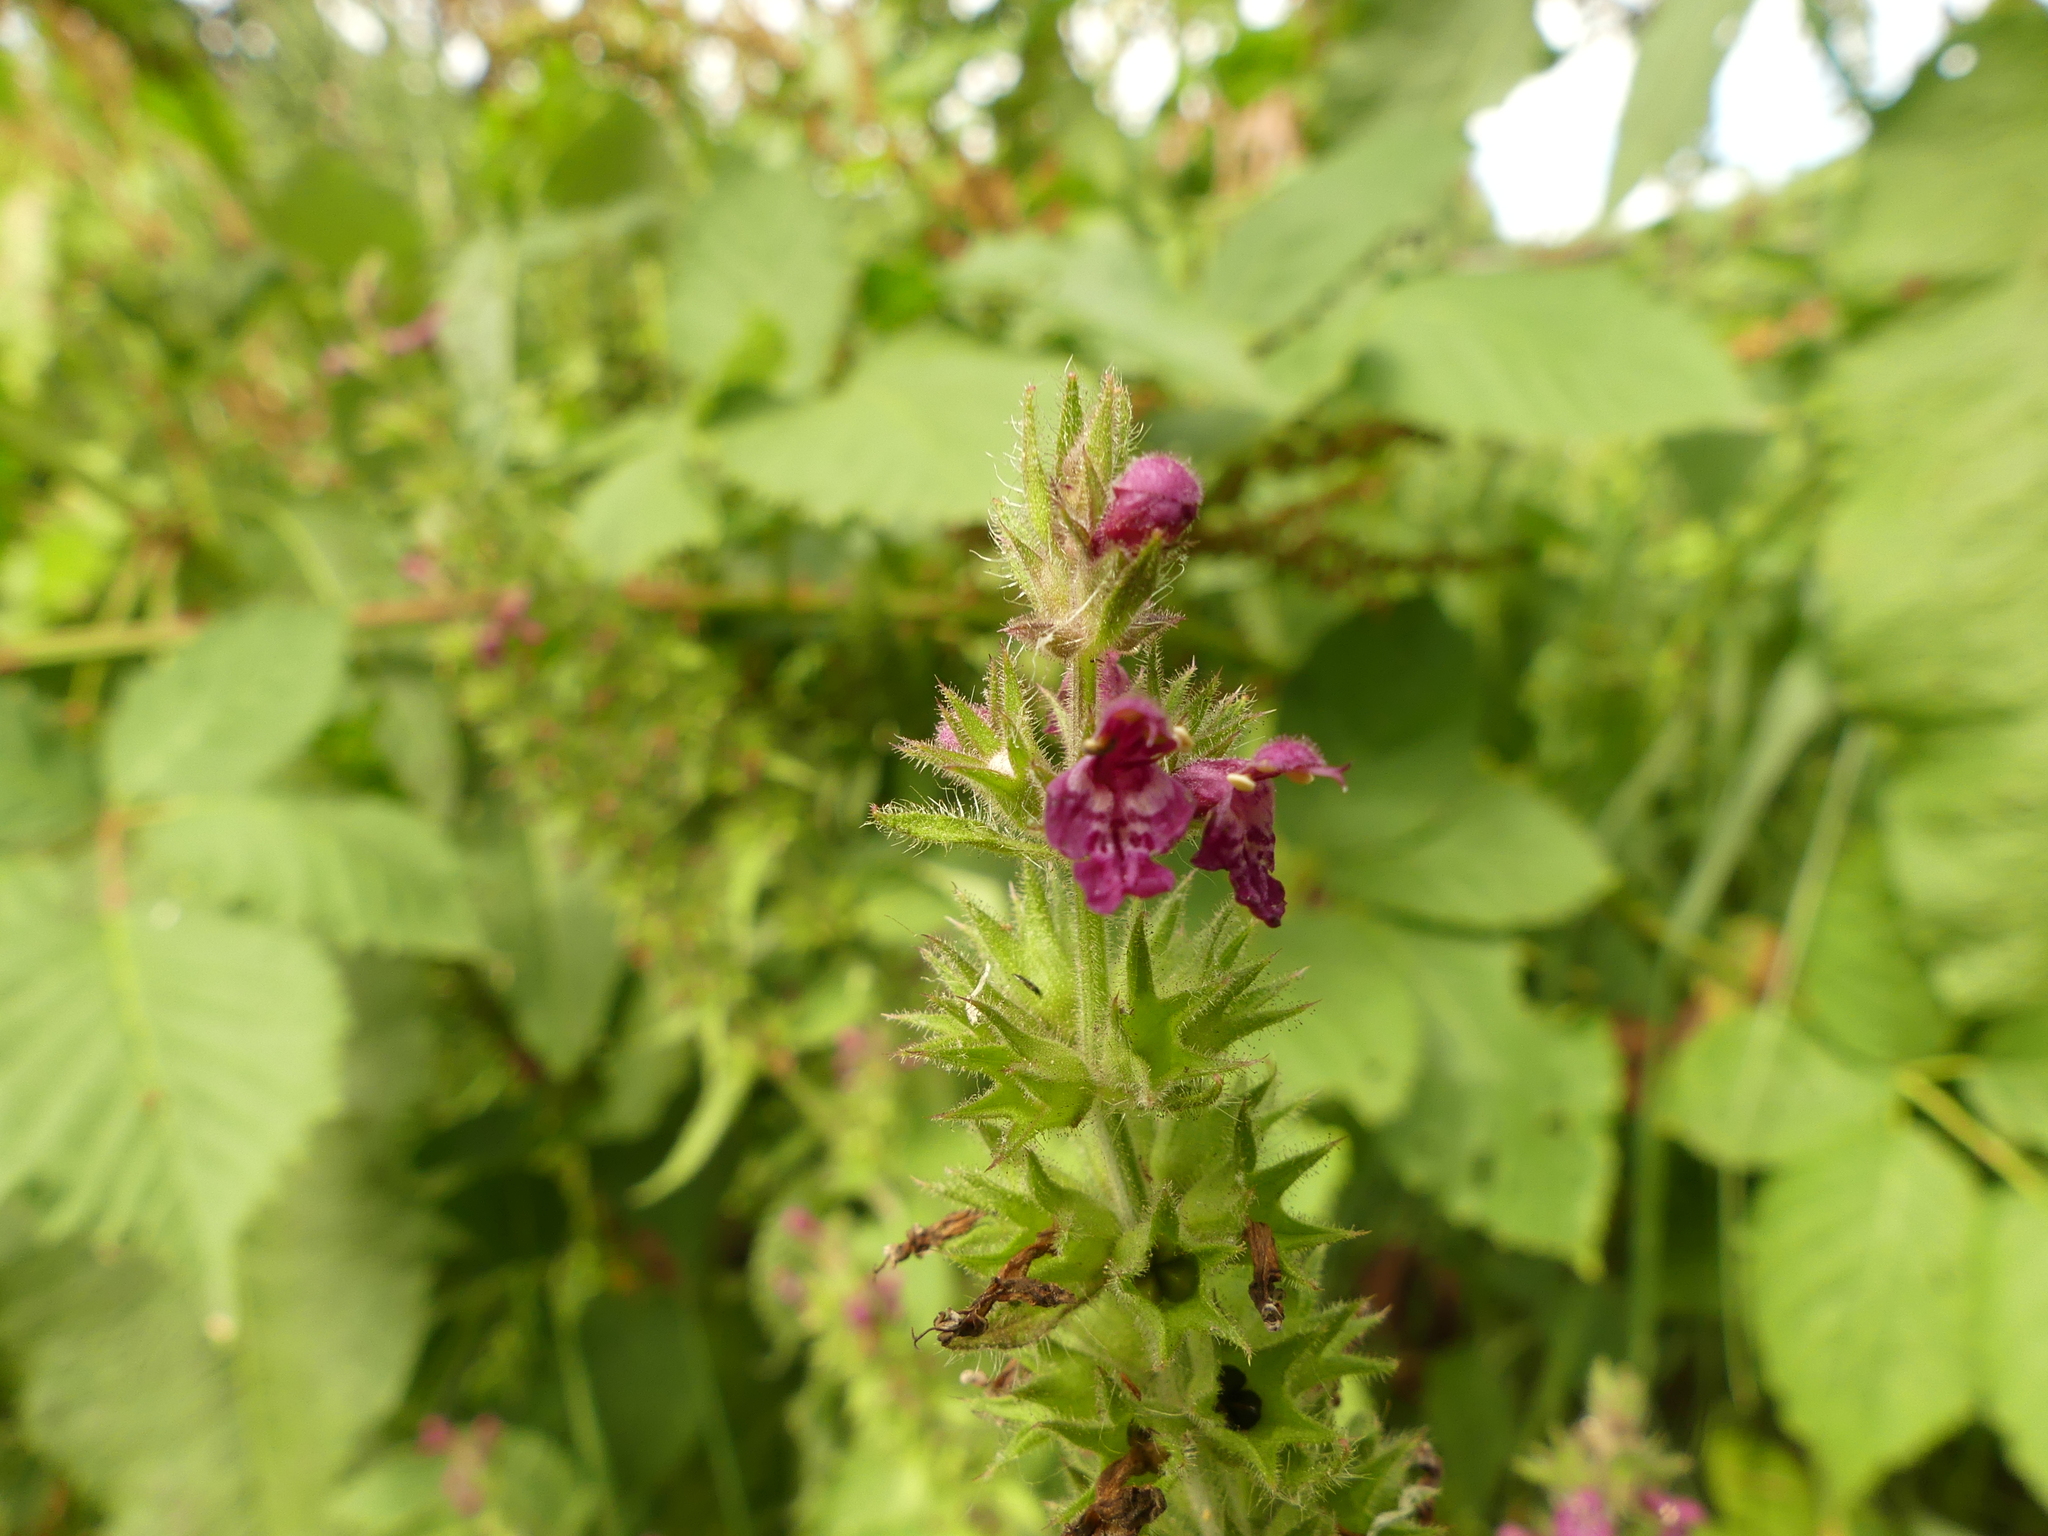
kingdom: Plantae
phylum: Tracheophyta
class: Magnoliopsida
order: Lamiales
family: Lamiaceae
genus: Stachys
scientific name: Stachys sylvatica
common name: Hedge woundwort
